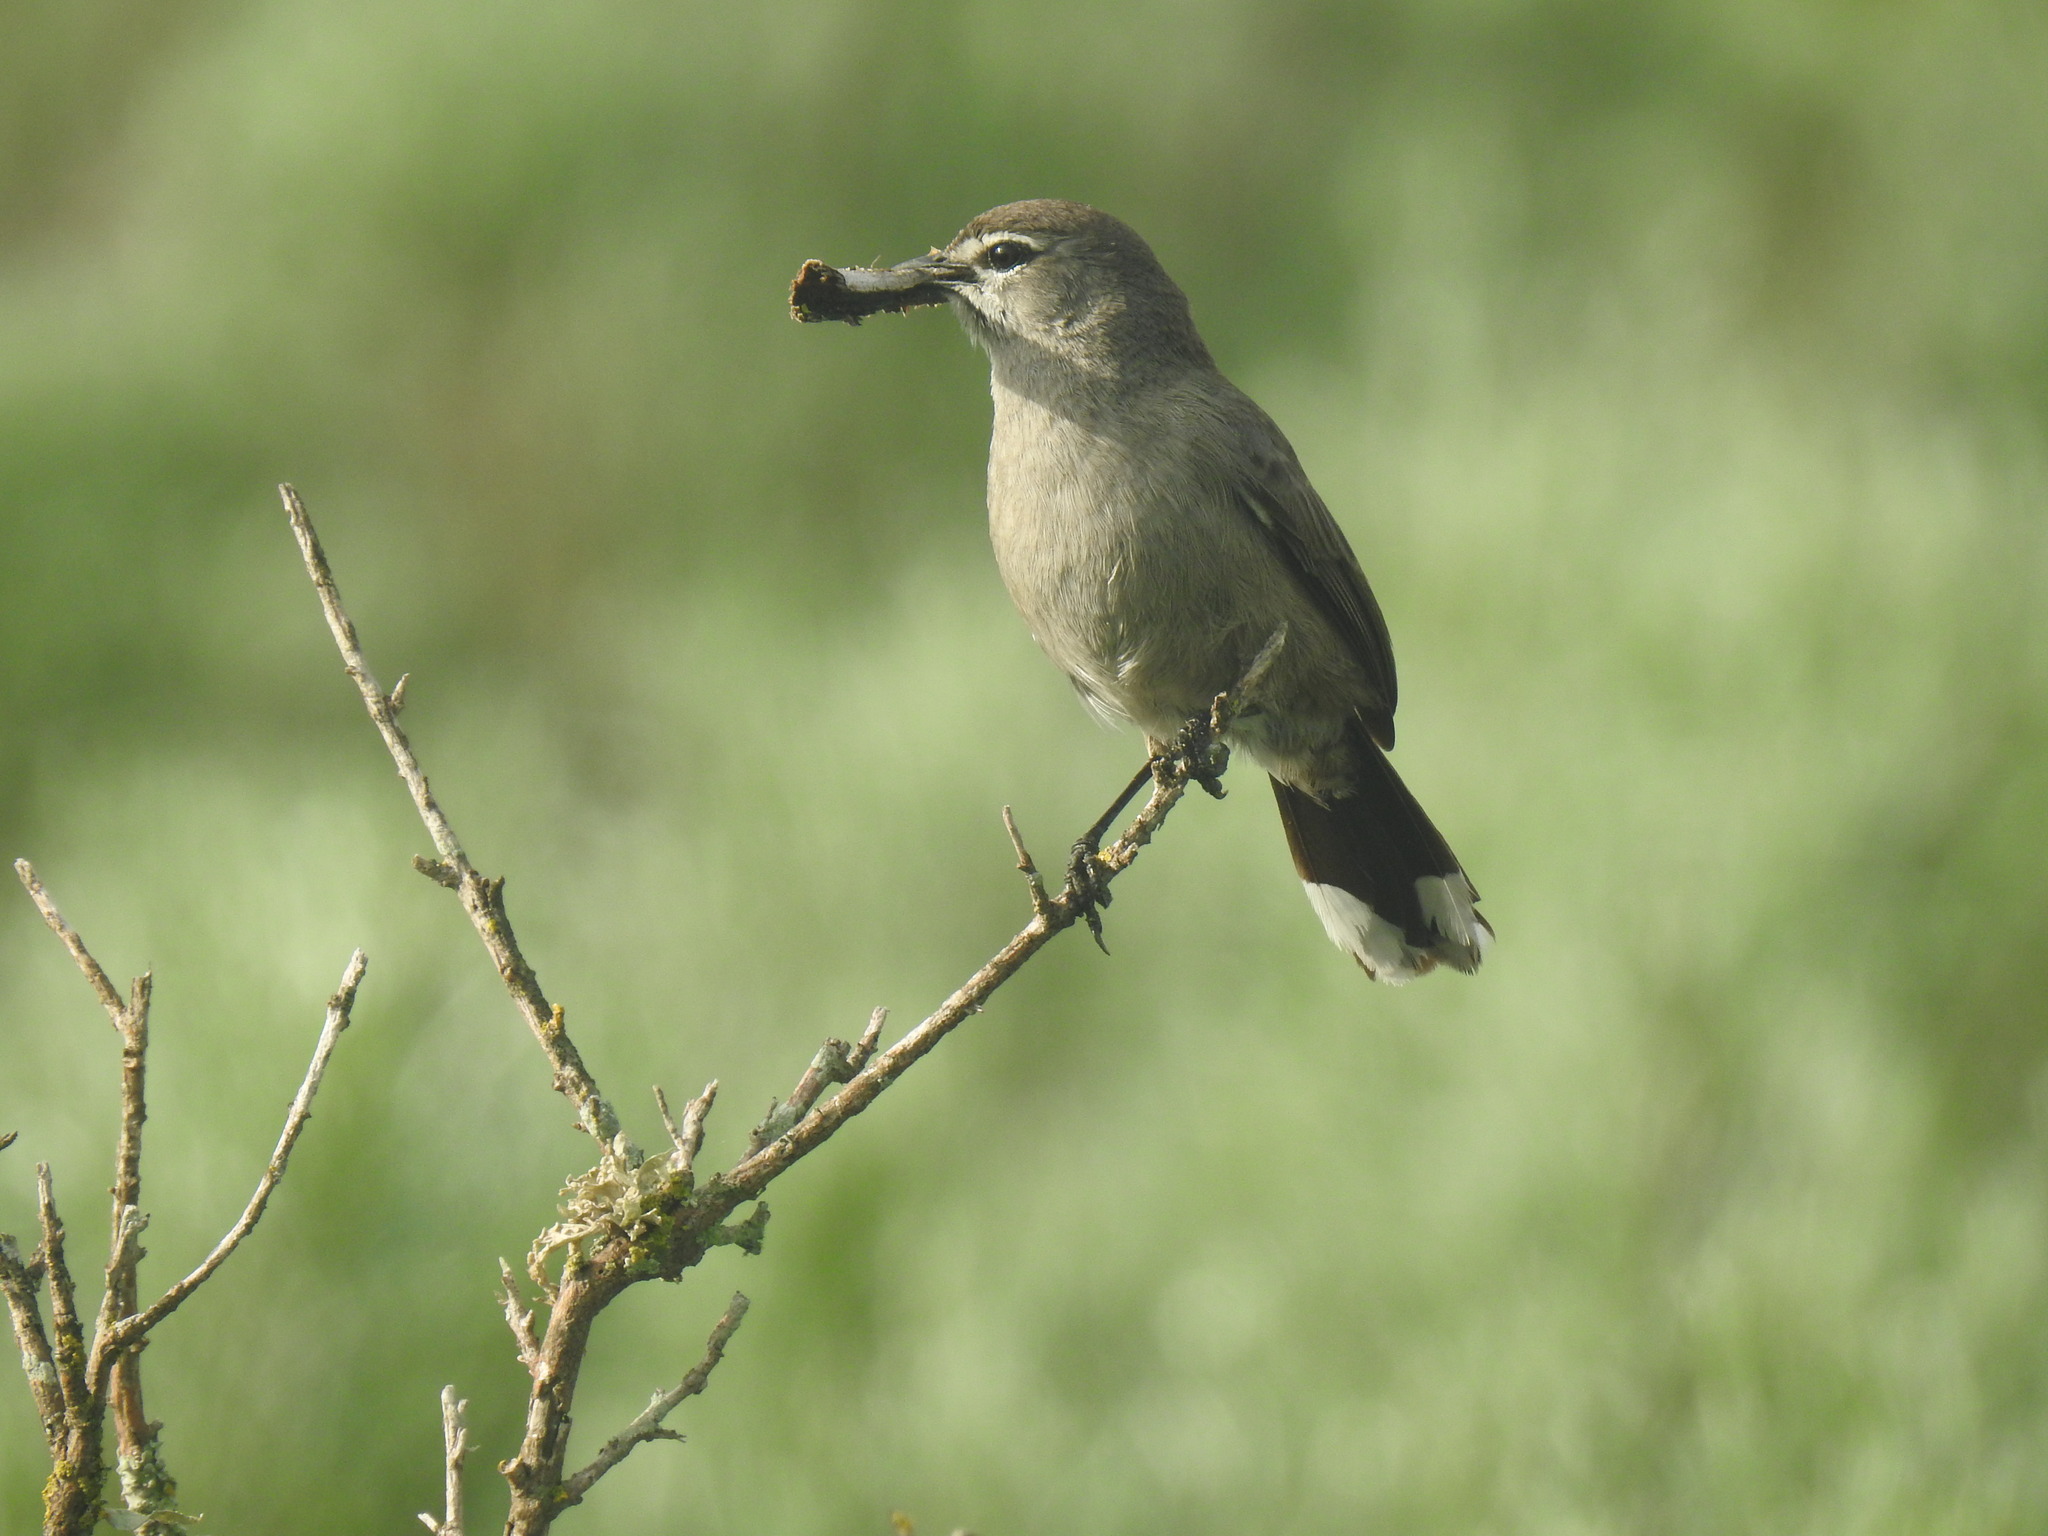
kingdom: Animalia
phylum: Chordata
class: Aves
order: Passeriformes
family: Muscicapidae
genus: Erythropygia
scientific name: Erythropygia coryphoeus
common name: Karoo scrub robin
